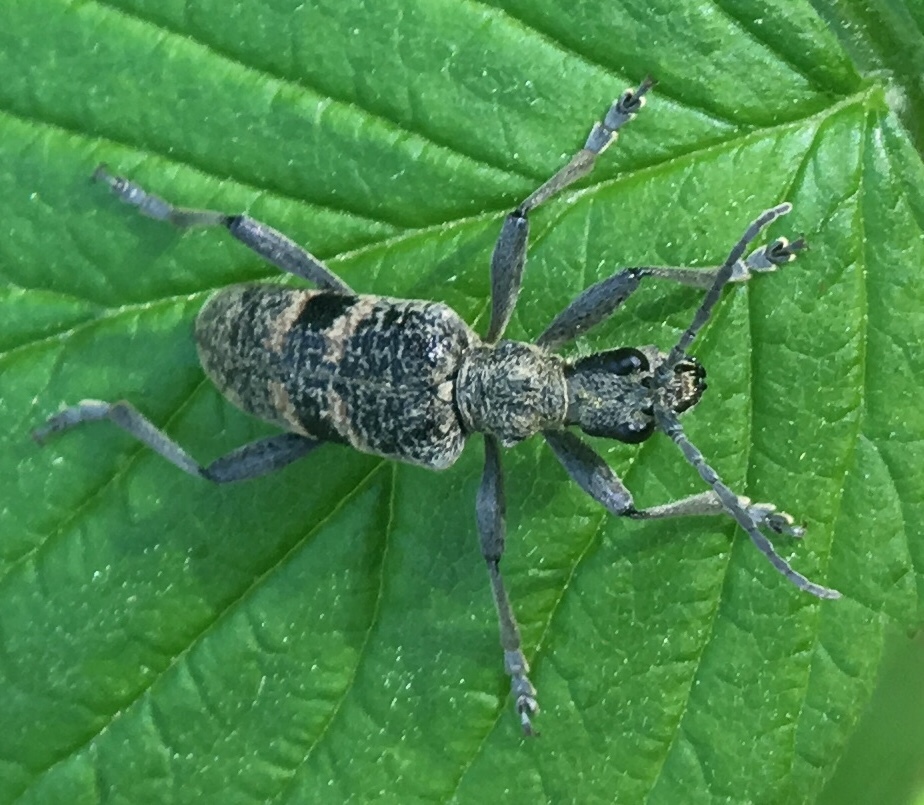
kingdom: Animalia
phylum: Arthropoda
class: Insecta
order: Coleoptera
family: Cerambycidae
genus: Rhagium
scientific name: Rhagium mordax
